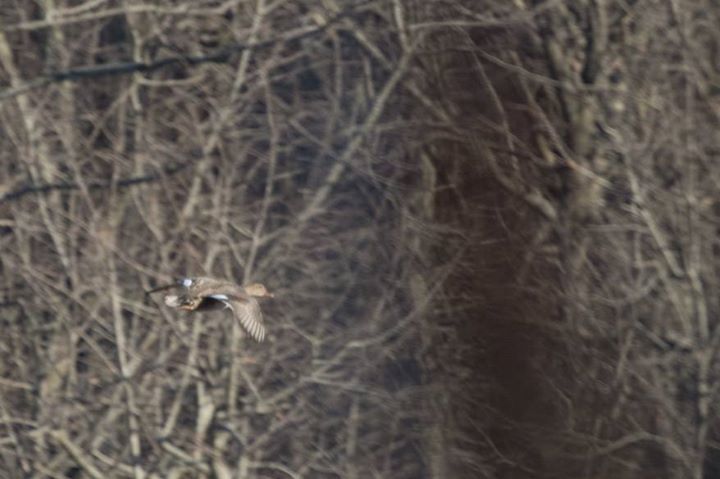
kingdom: Animalia
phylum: Chordata
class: Aves
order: Anseriformes
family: Anatidae
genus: Mareca
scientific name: Mareca strepera
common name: Gadwall
